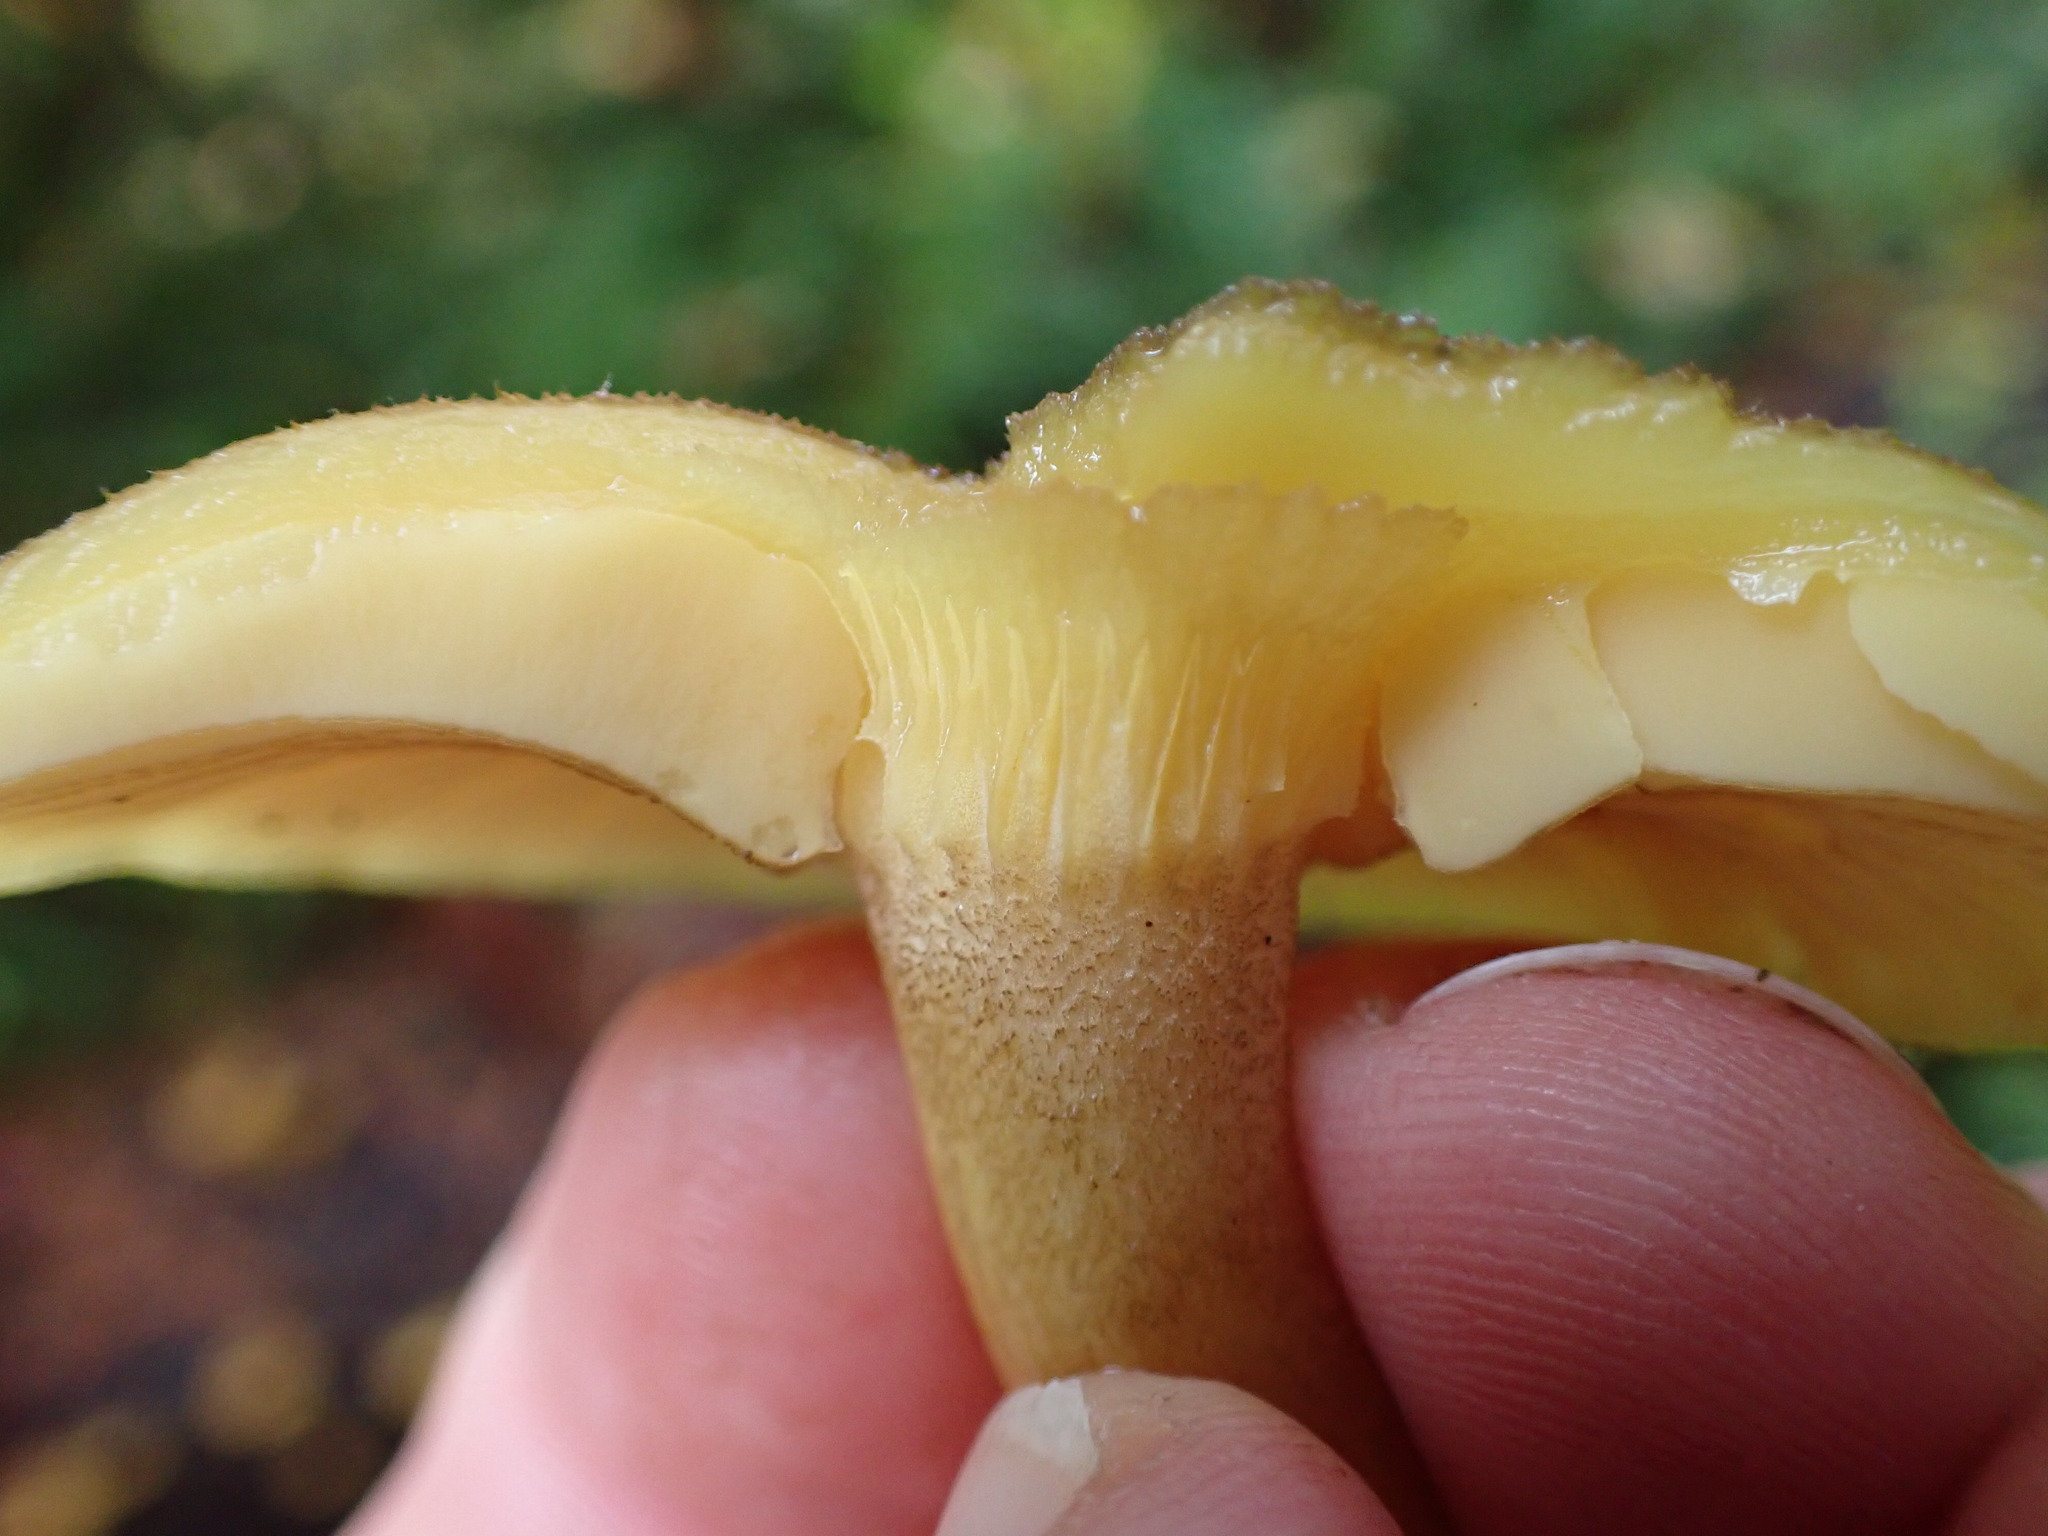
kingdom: Fungi
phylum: Basidiomycota
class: Agaricomycetes
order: Agaricales
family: Tricholomataceae
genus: Tricholomopsis
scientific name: Tricholomopsis decora
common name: Prunes and custard
